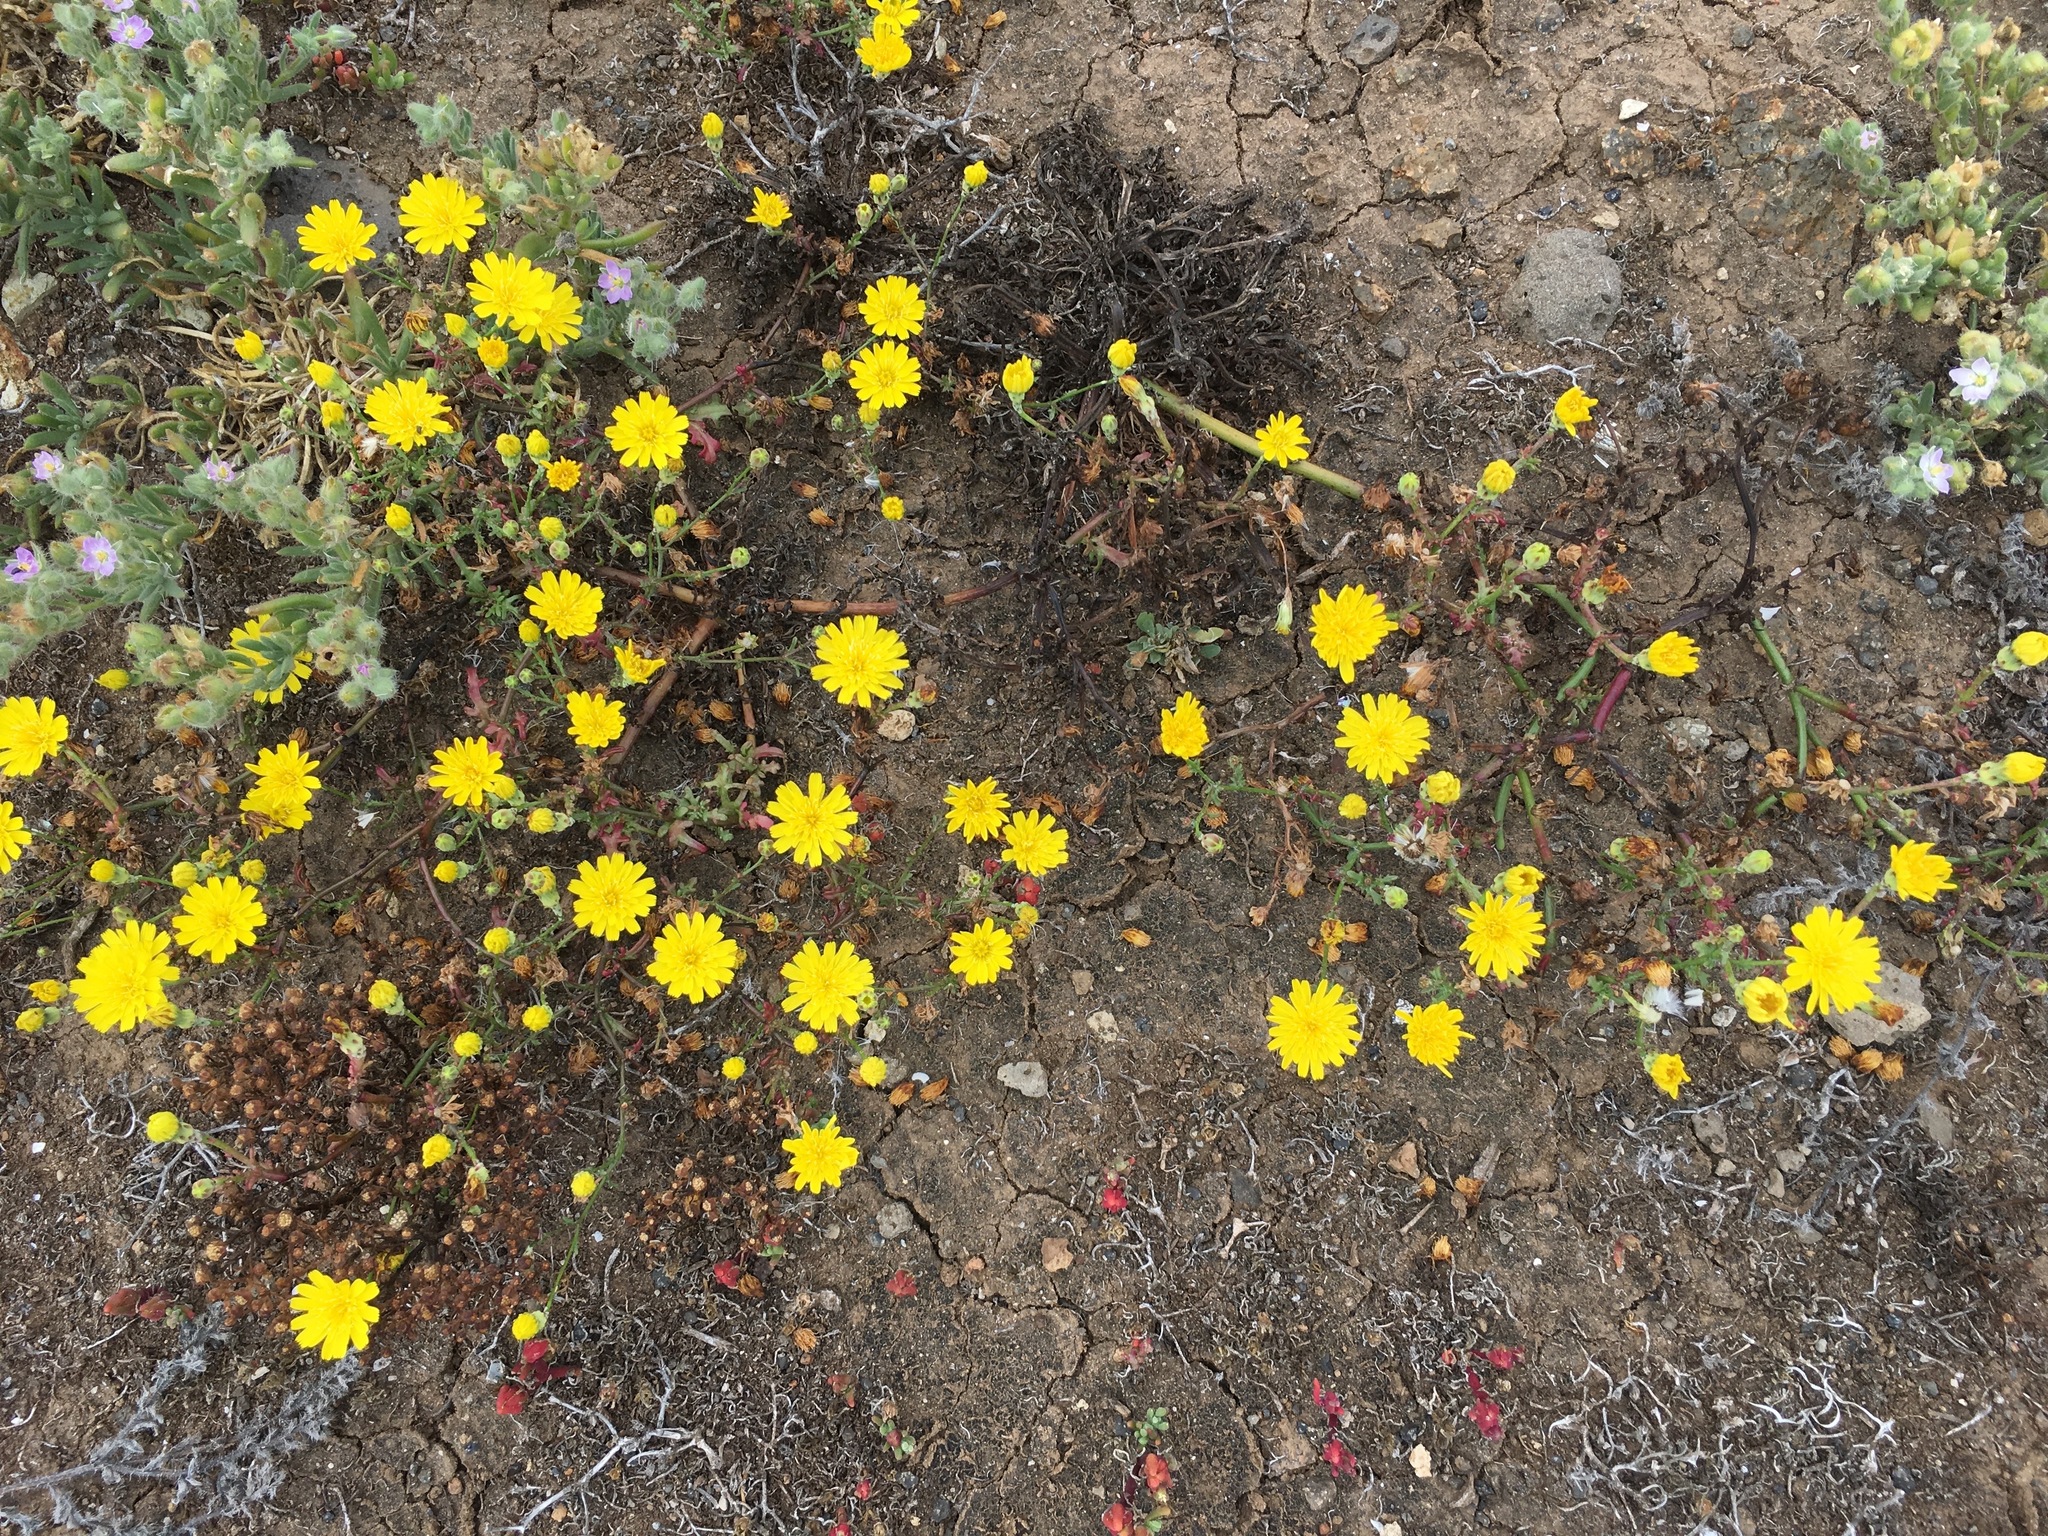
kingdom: Plantae
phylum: Tracheophyta
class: Magnoliopsida
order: Asterales
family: Asteraceae
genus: Malacothrix
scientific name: Malacothrix foliosa
